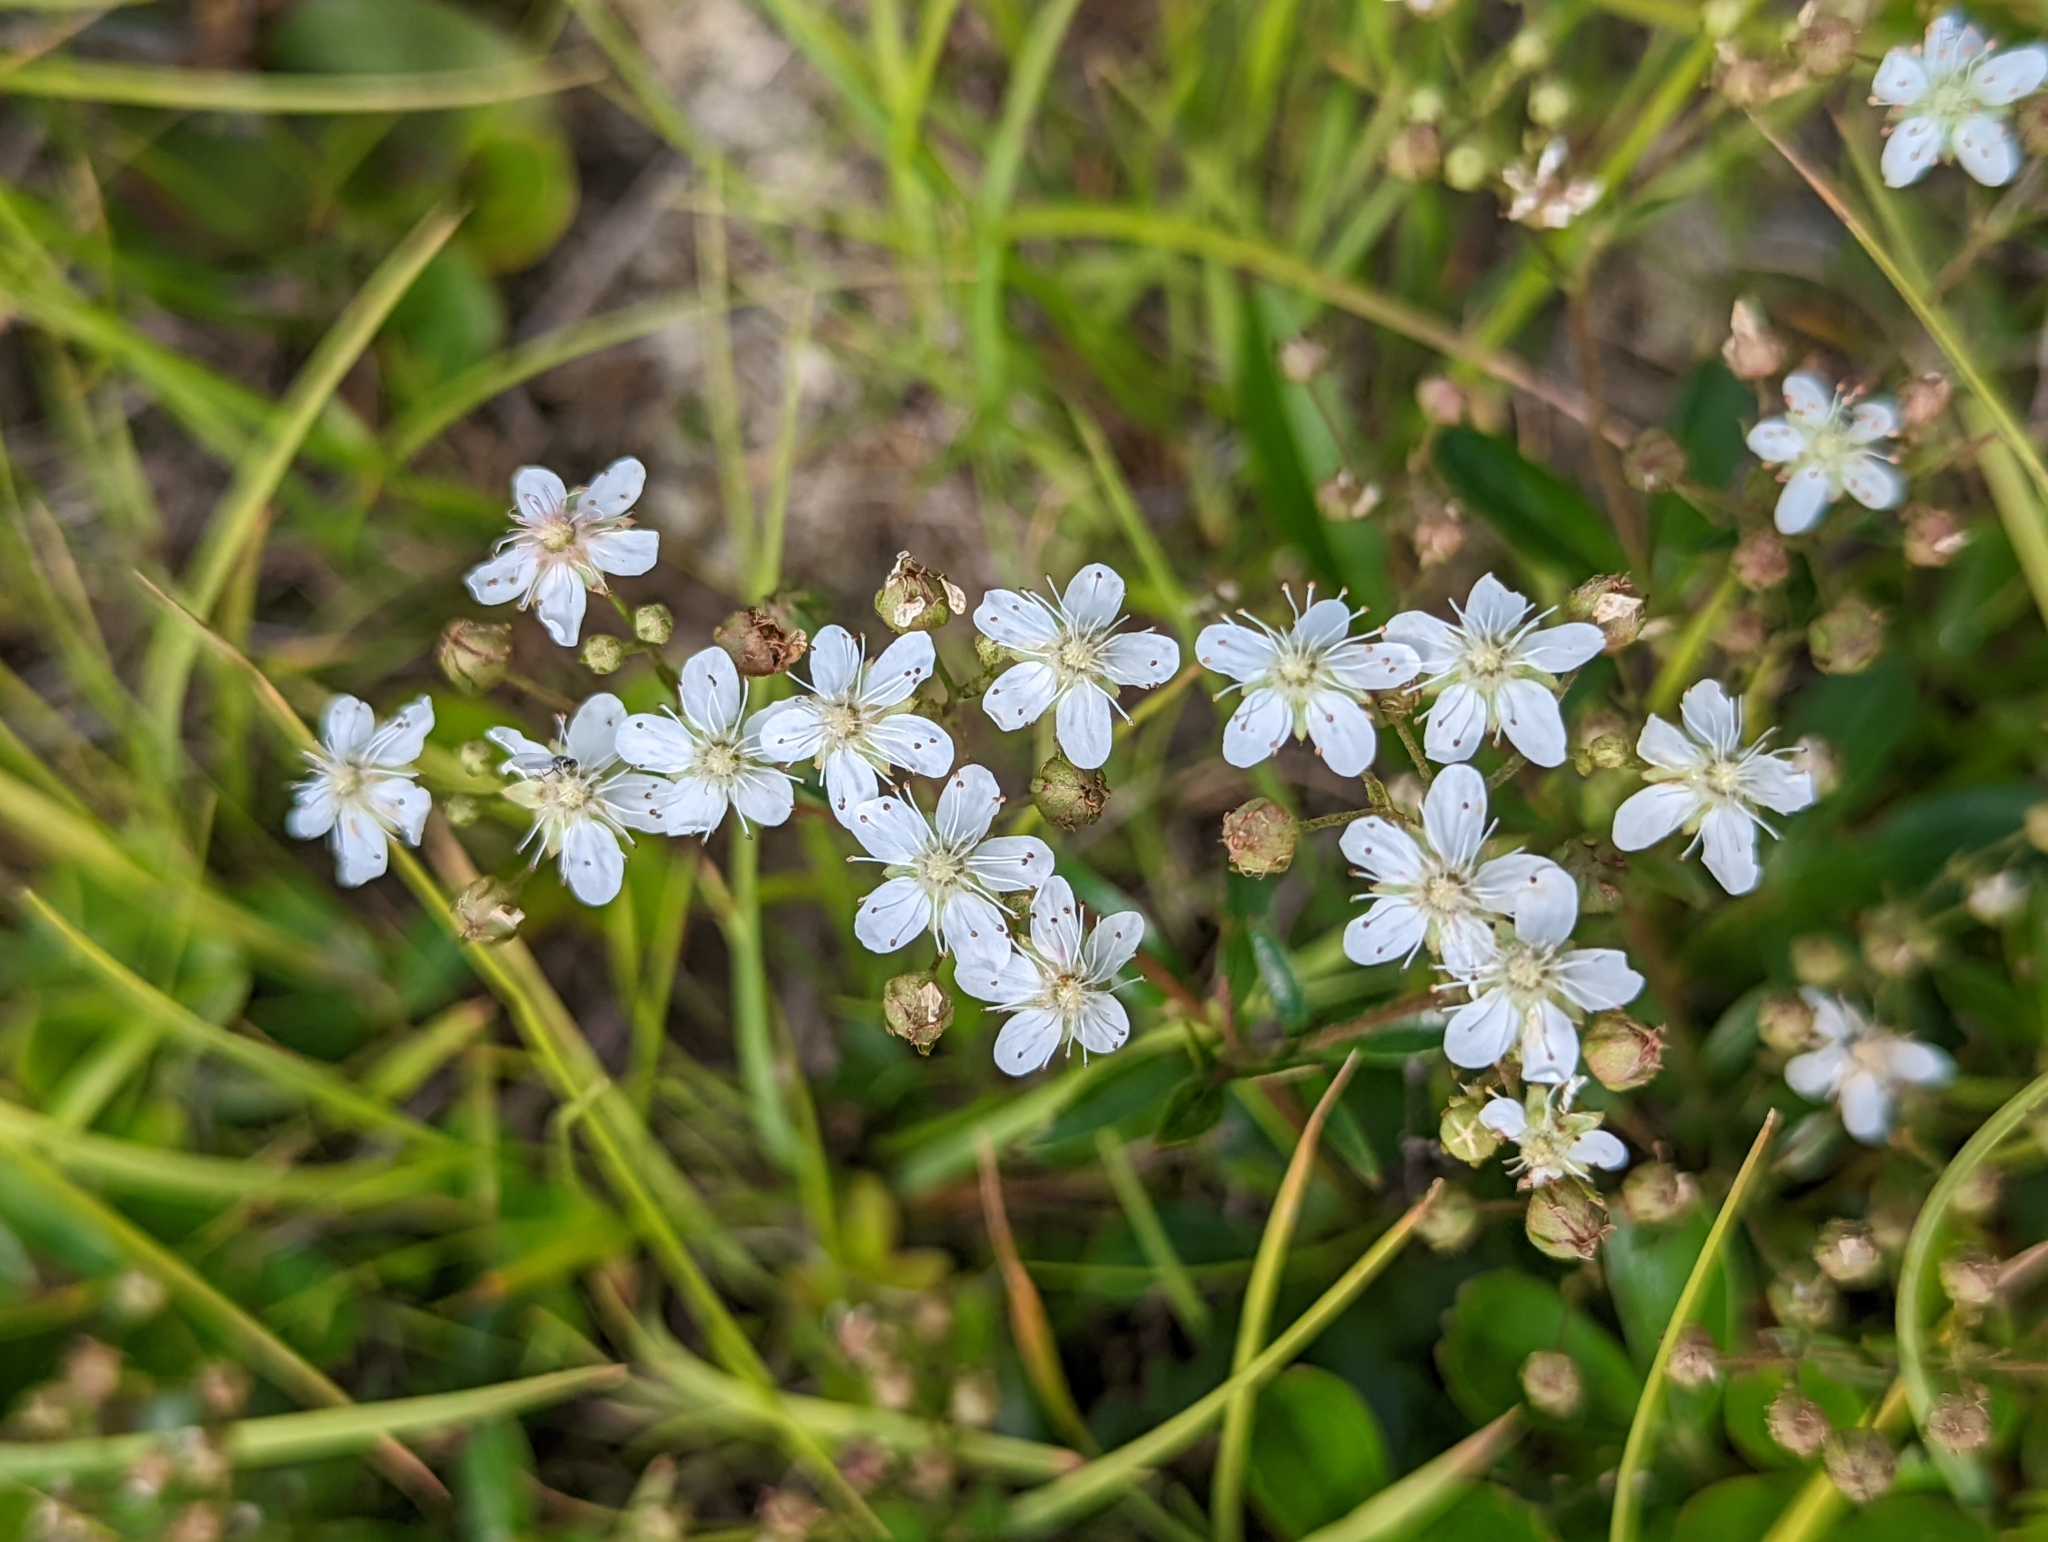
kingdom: Plantae
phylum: Tracheophyta
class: Magnoliopsida
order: Rosales
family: Rosaceae
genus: Sibbaldia
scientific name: Sibbaldia tridentata
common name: Three-toothed cinquefoil
